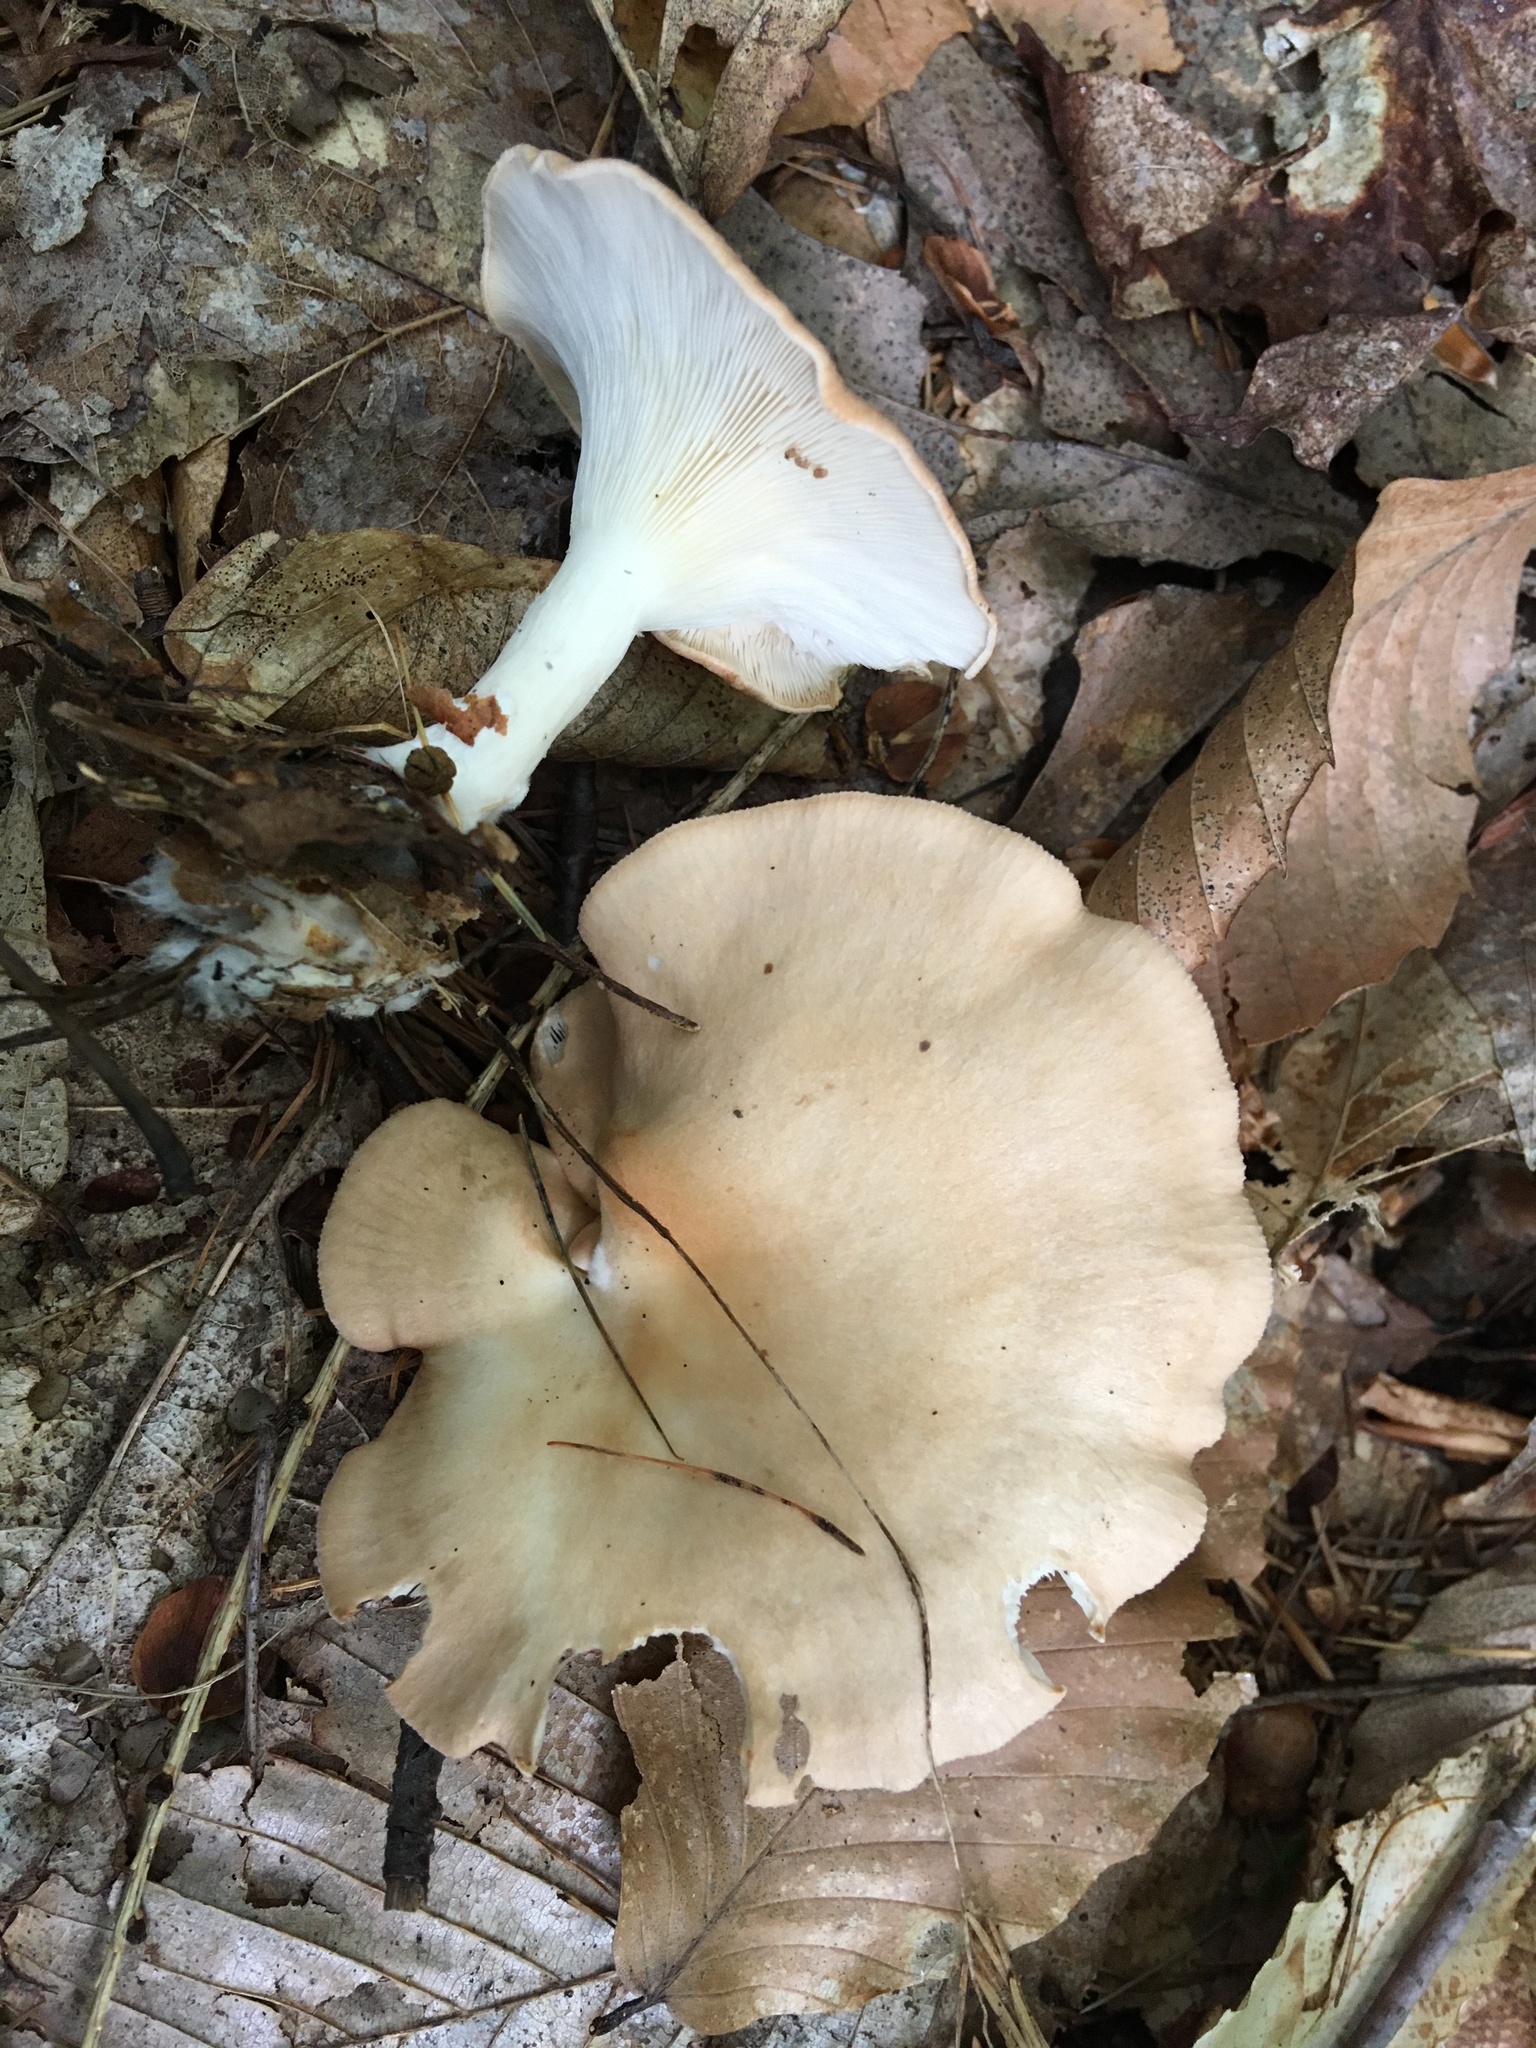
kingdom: Fungi
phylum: Basidiomycota
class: Agaricomycetes
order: Agaricales
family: Tricholomataceae
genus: Infundibulicybe
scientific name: Infundibulicybe gibba
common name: Common funnel
